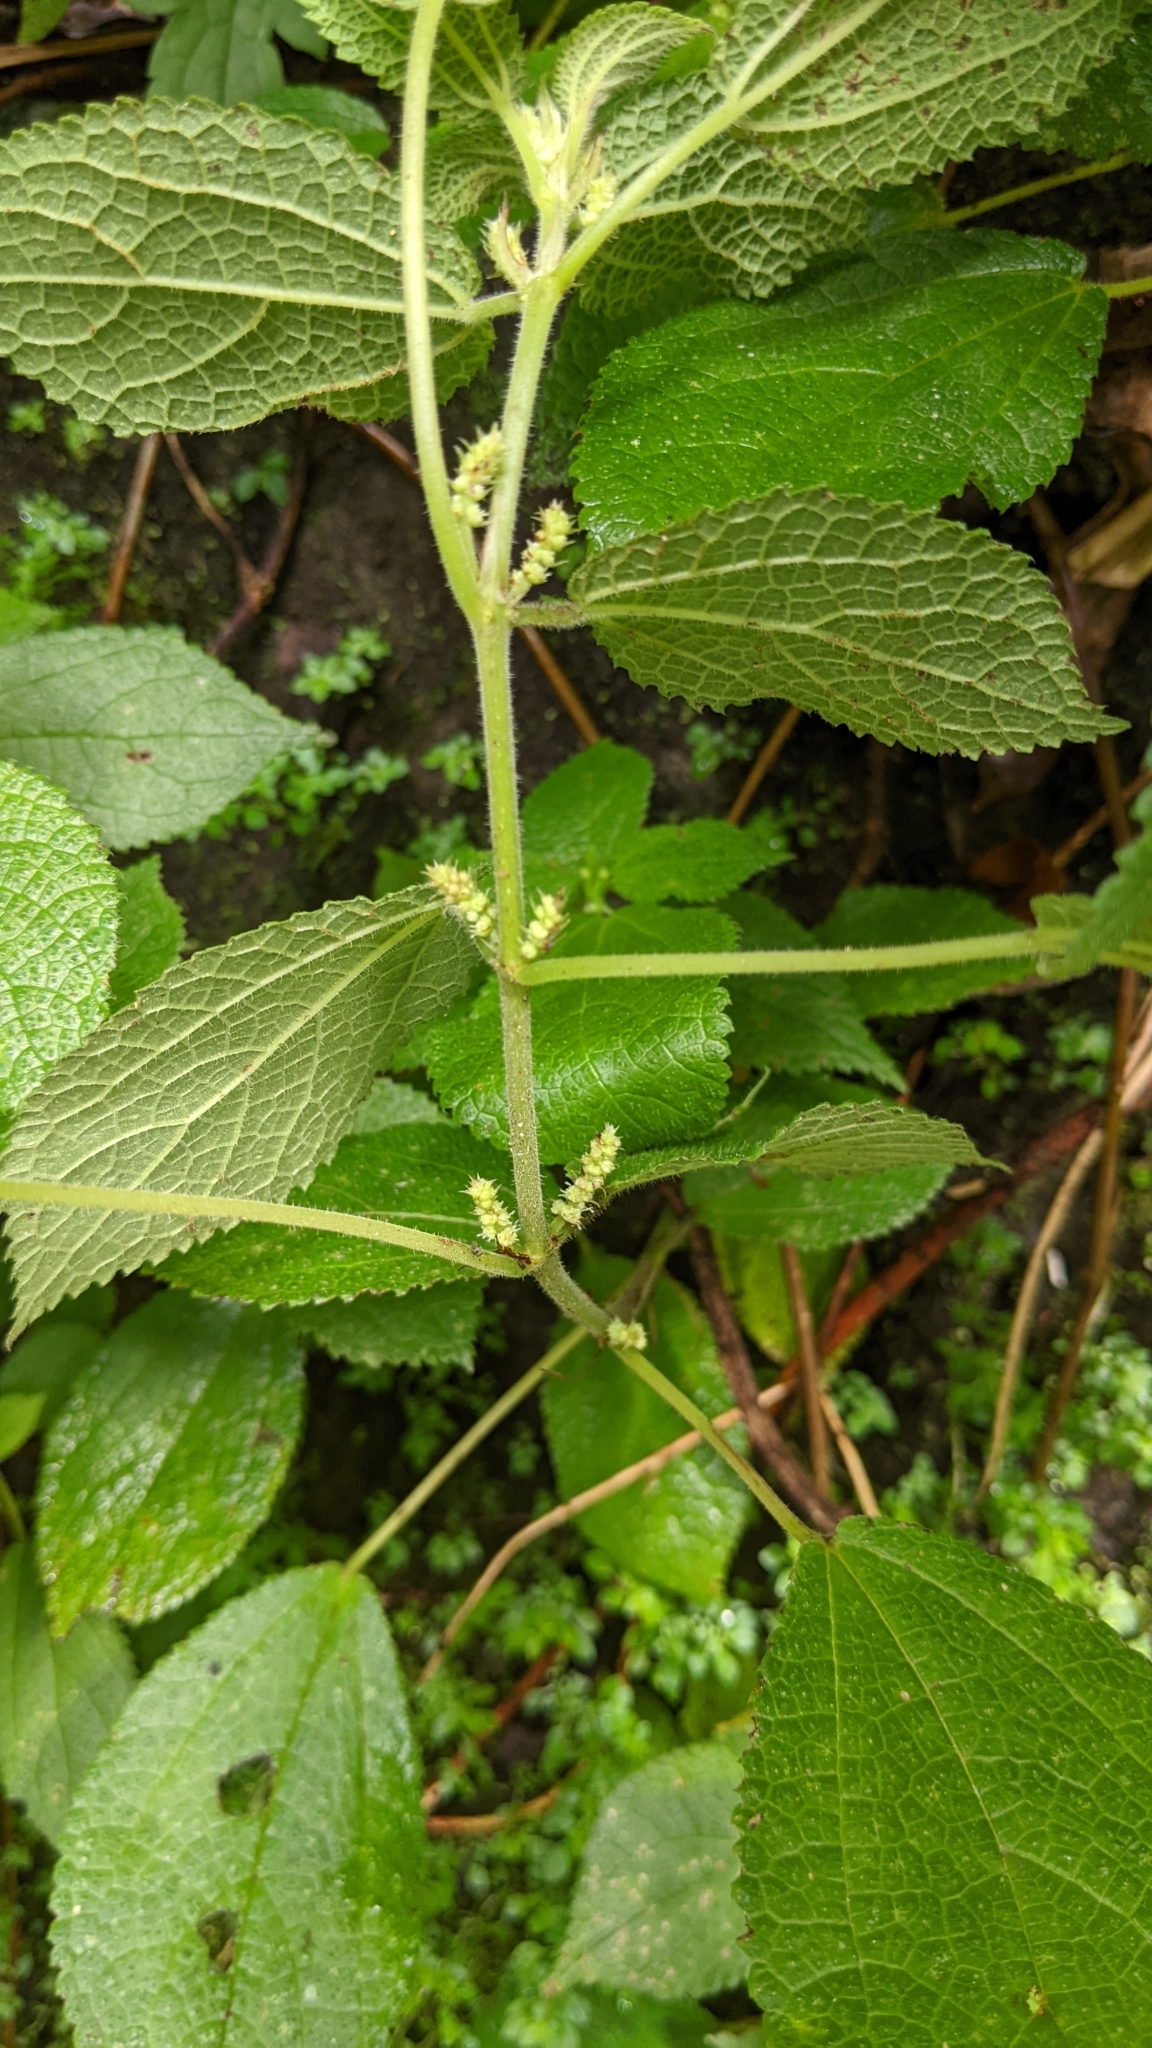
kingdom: Plantae
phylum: Tracheophyta
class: Magnoliopsida
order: Rosales
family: Urticaceae
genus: Boehmeria
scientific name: Boehmeria pilosiuscula
